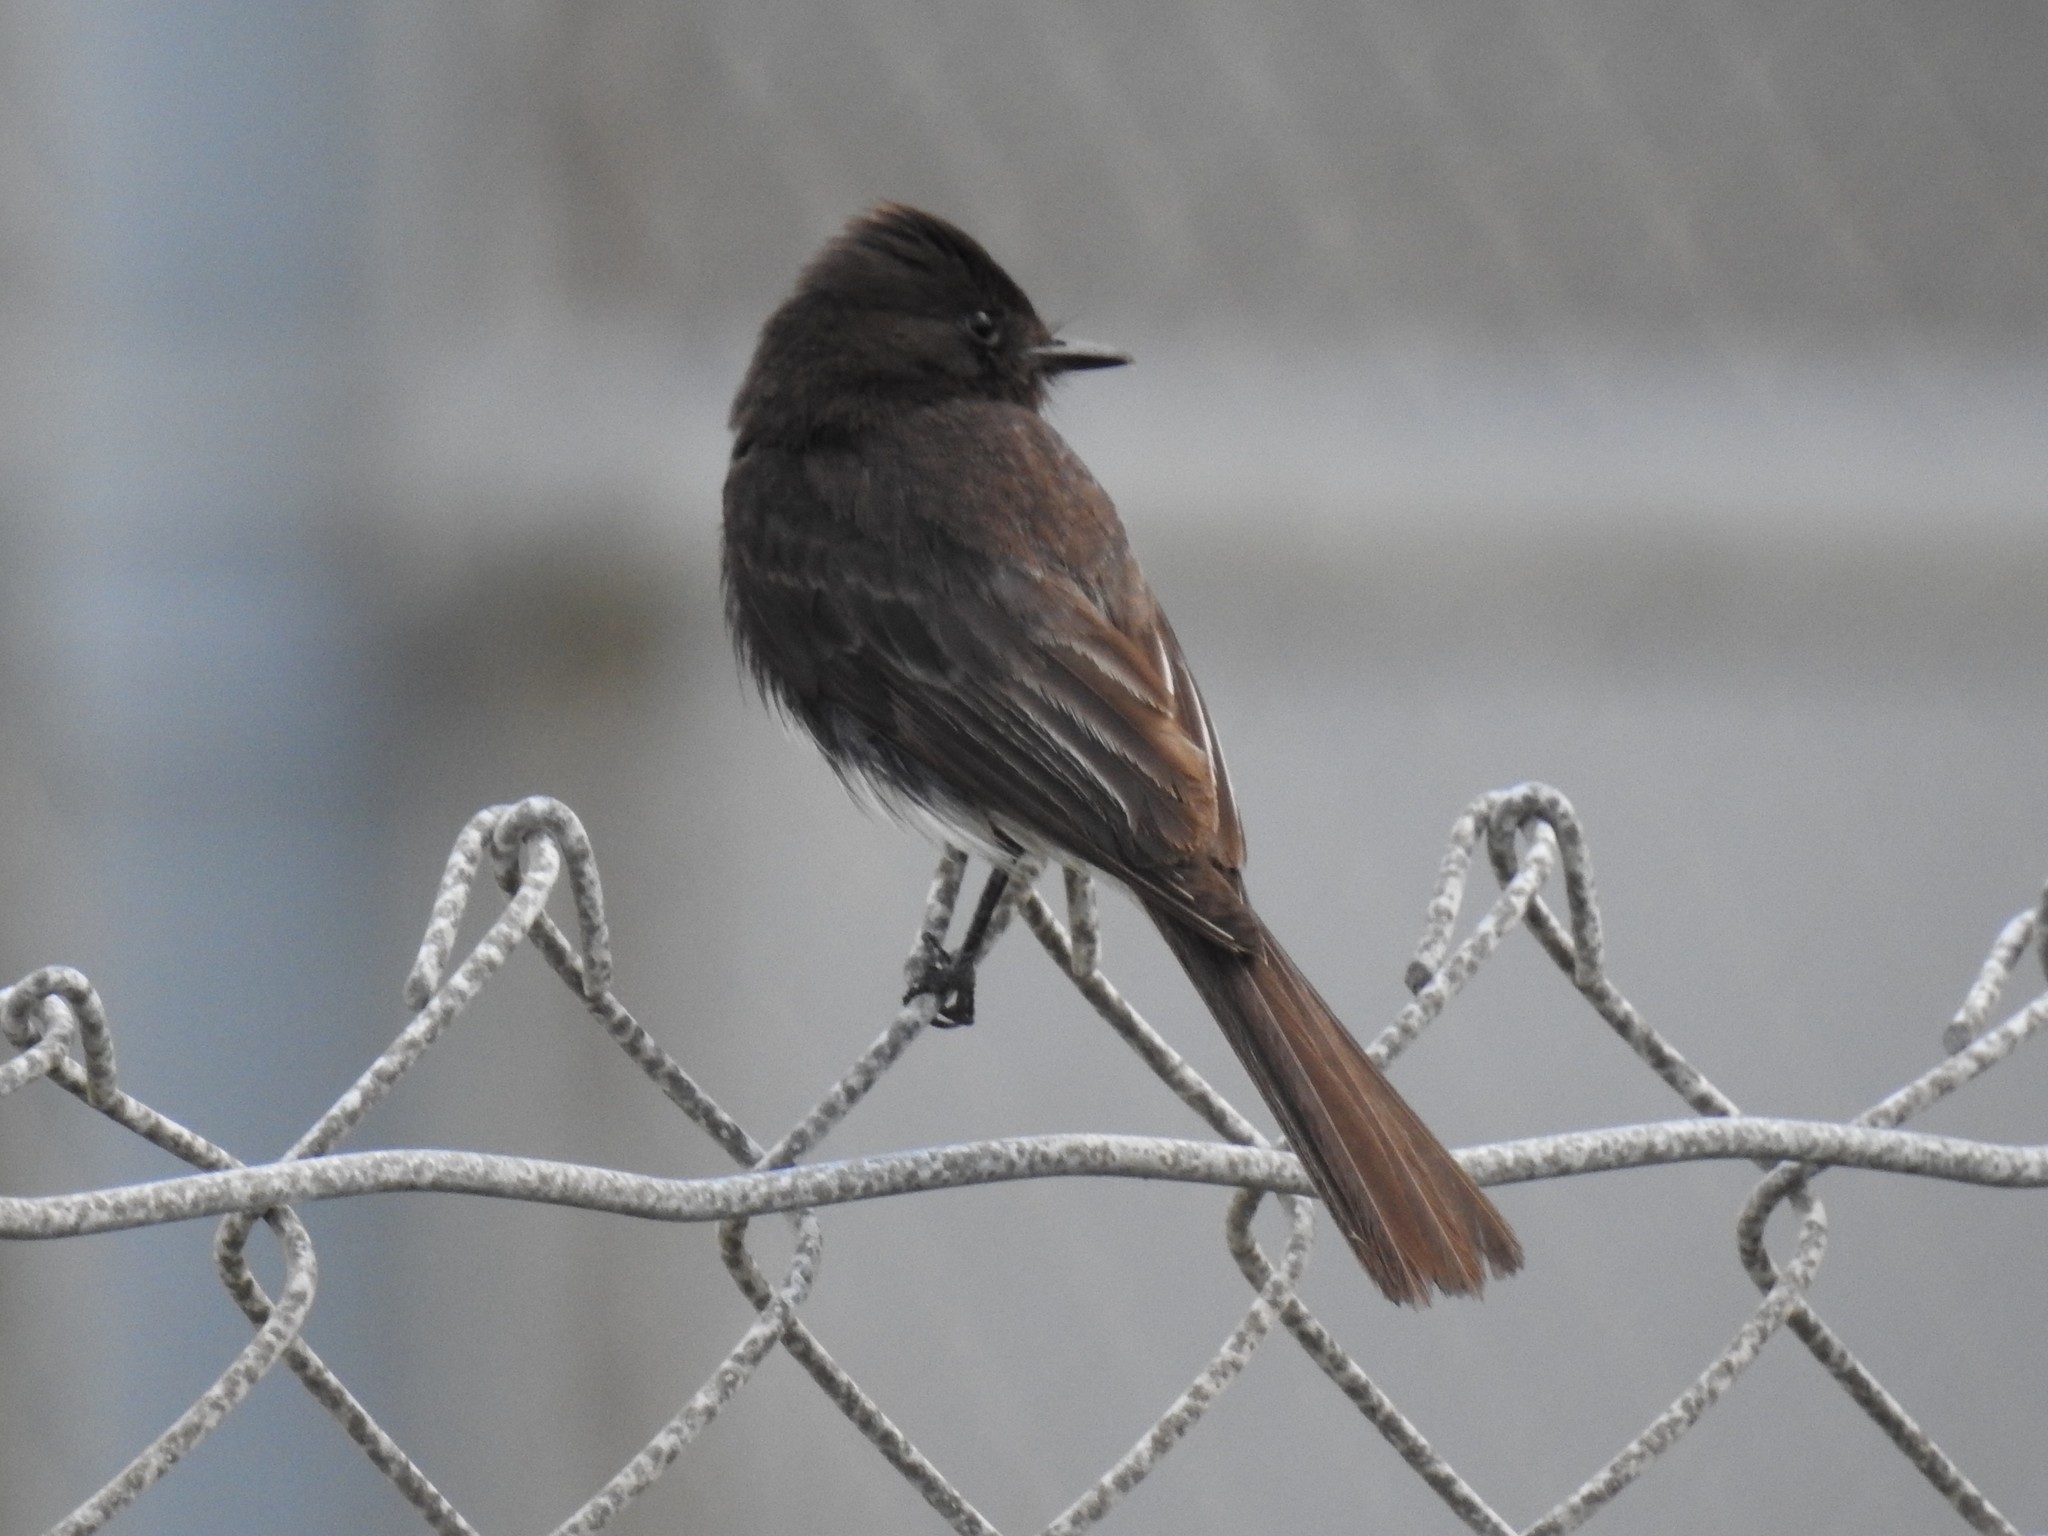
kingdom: Animalia
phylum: Chordata
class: Aves
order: Passeriformes
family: Tyrannidae
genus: Sayornis
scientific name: Sayornis nigricans
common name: Black phoebe
